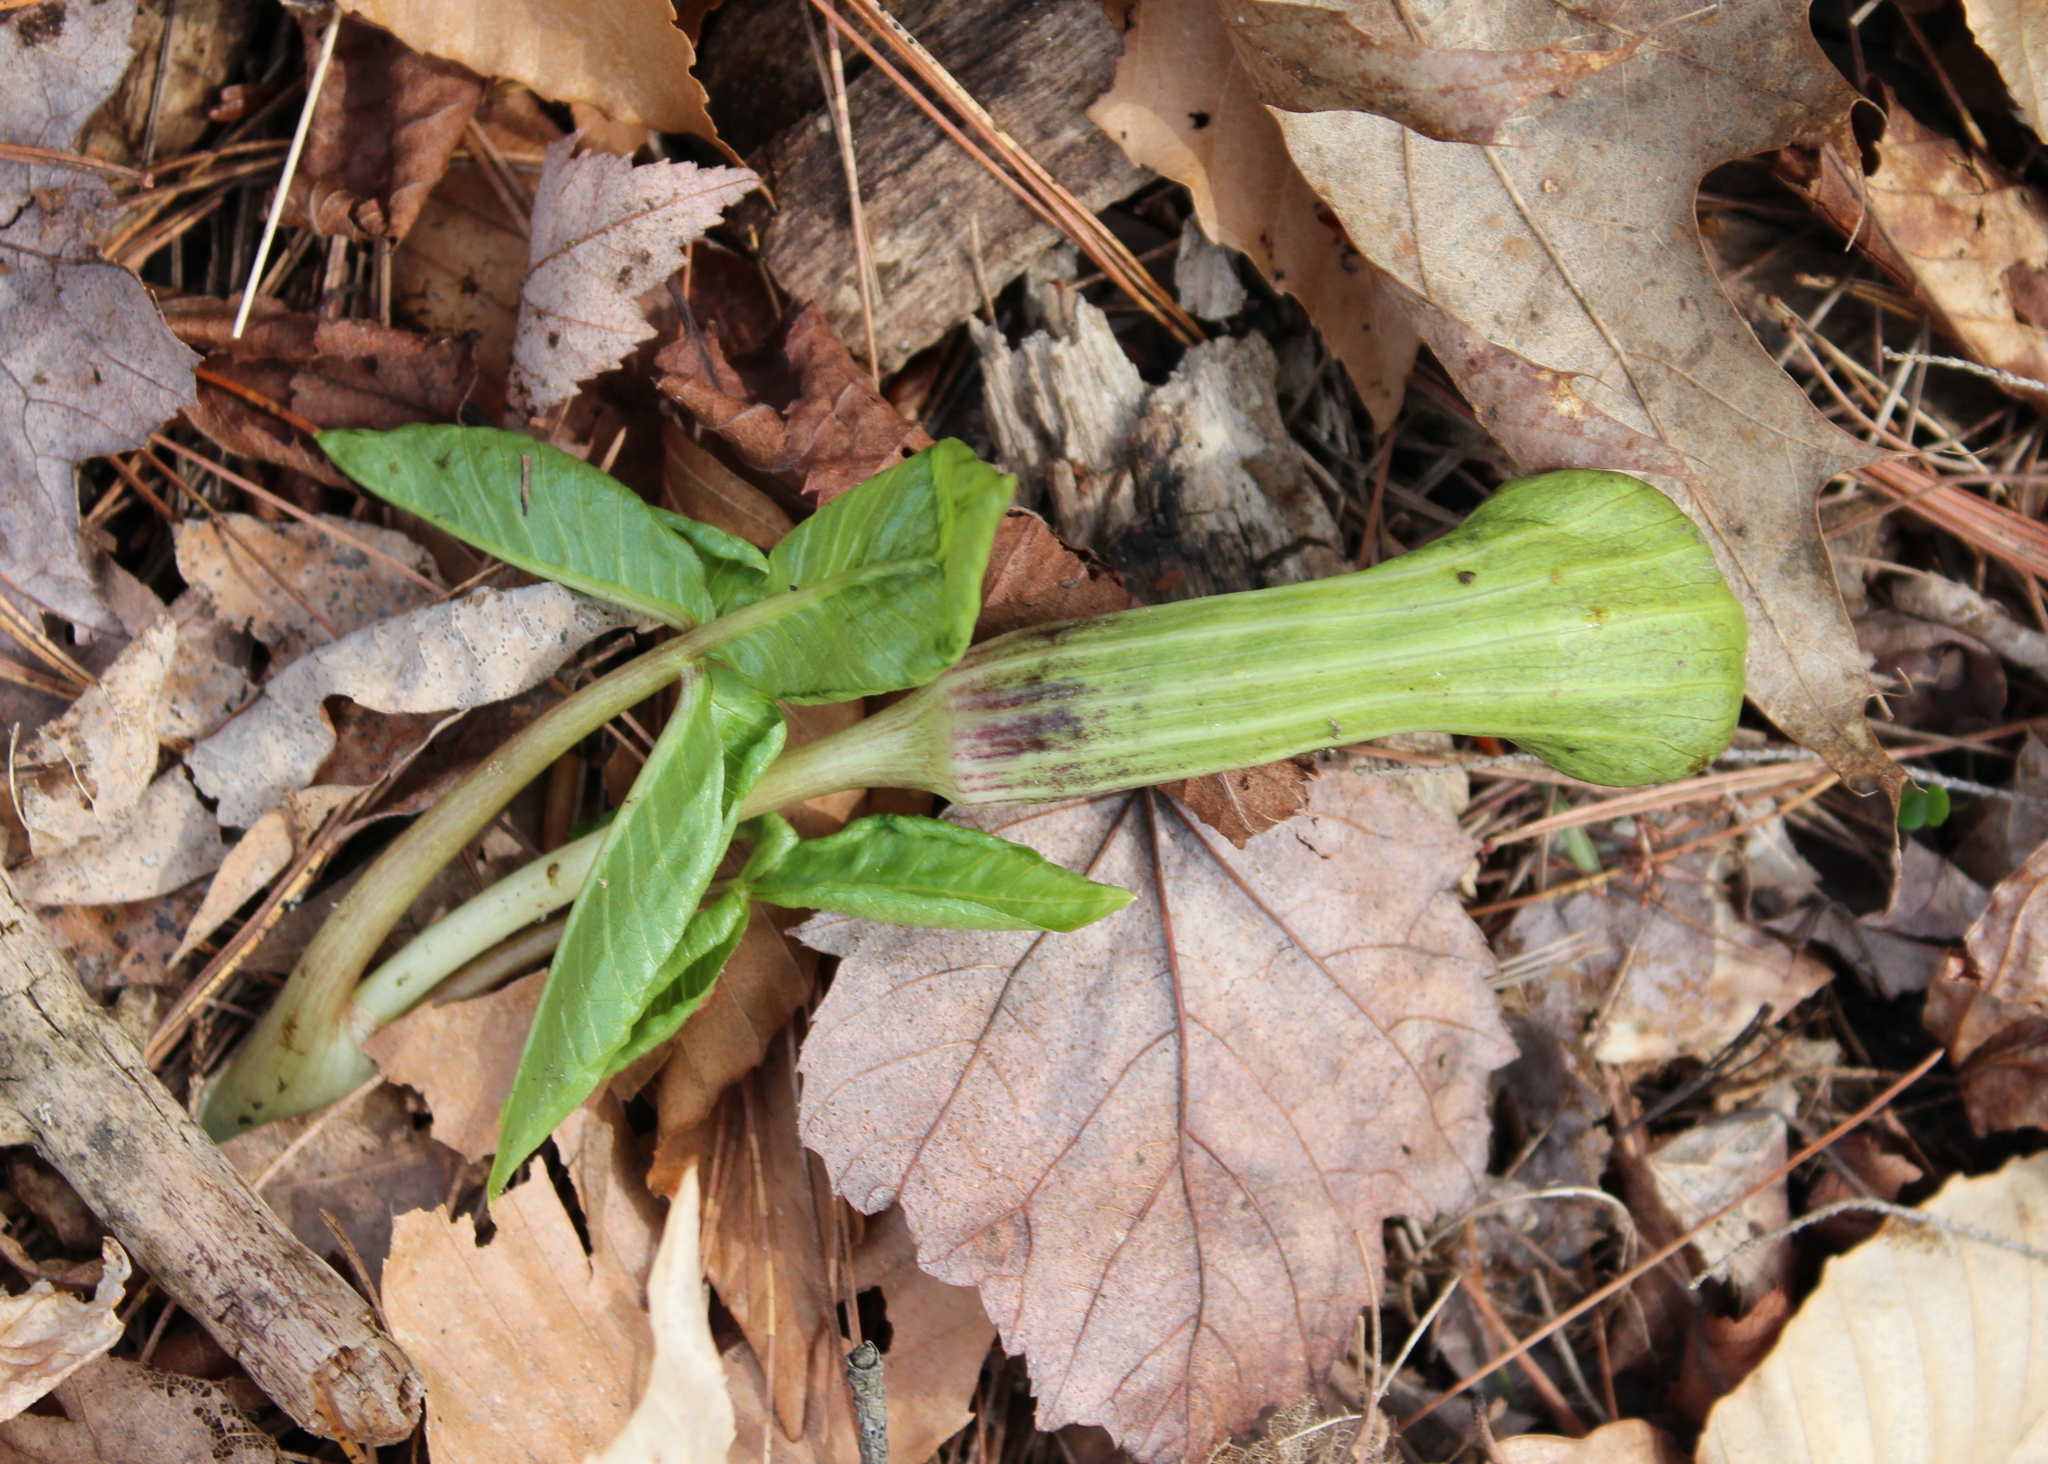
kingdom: Plantae
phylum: Tracheophyta
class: Liliopsida
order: Alismatales
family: Araceae
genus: Arisaema
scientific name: Arisaema triphyllum
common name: Jack-in-the-pulpit
